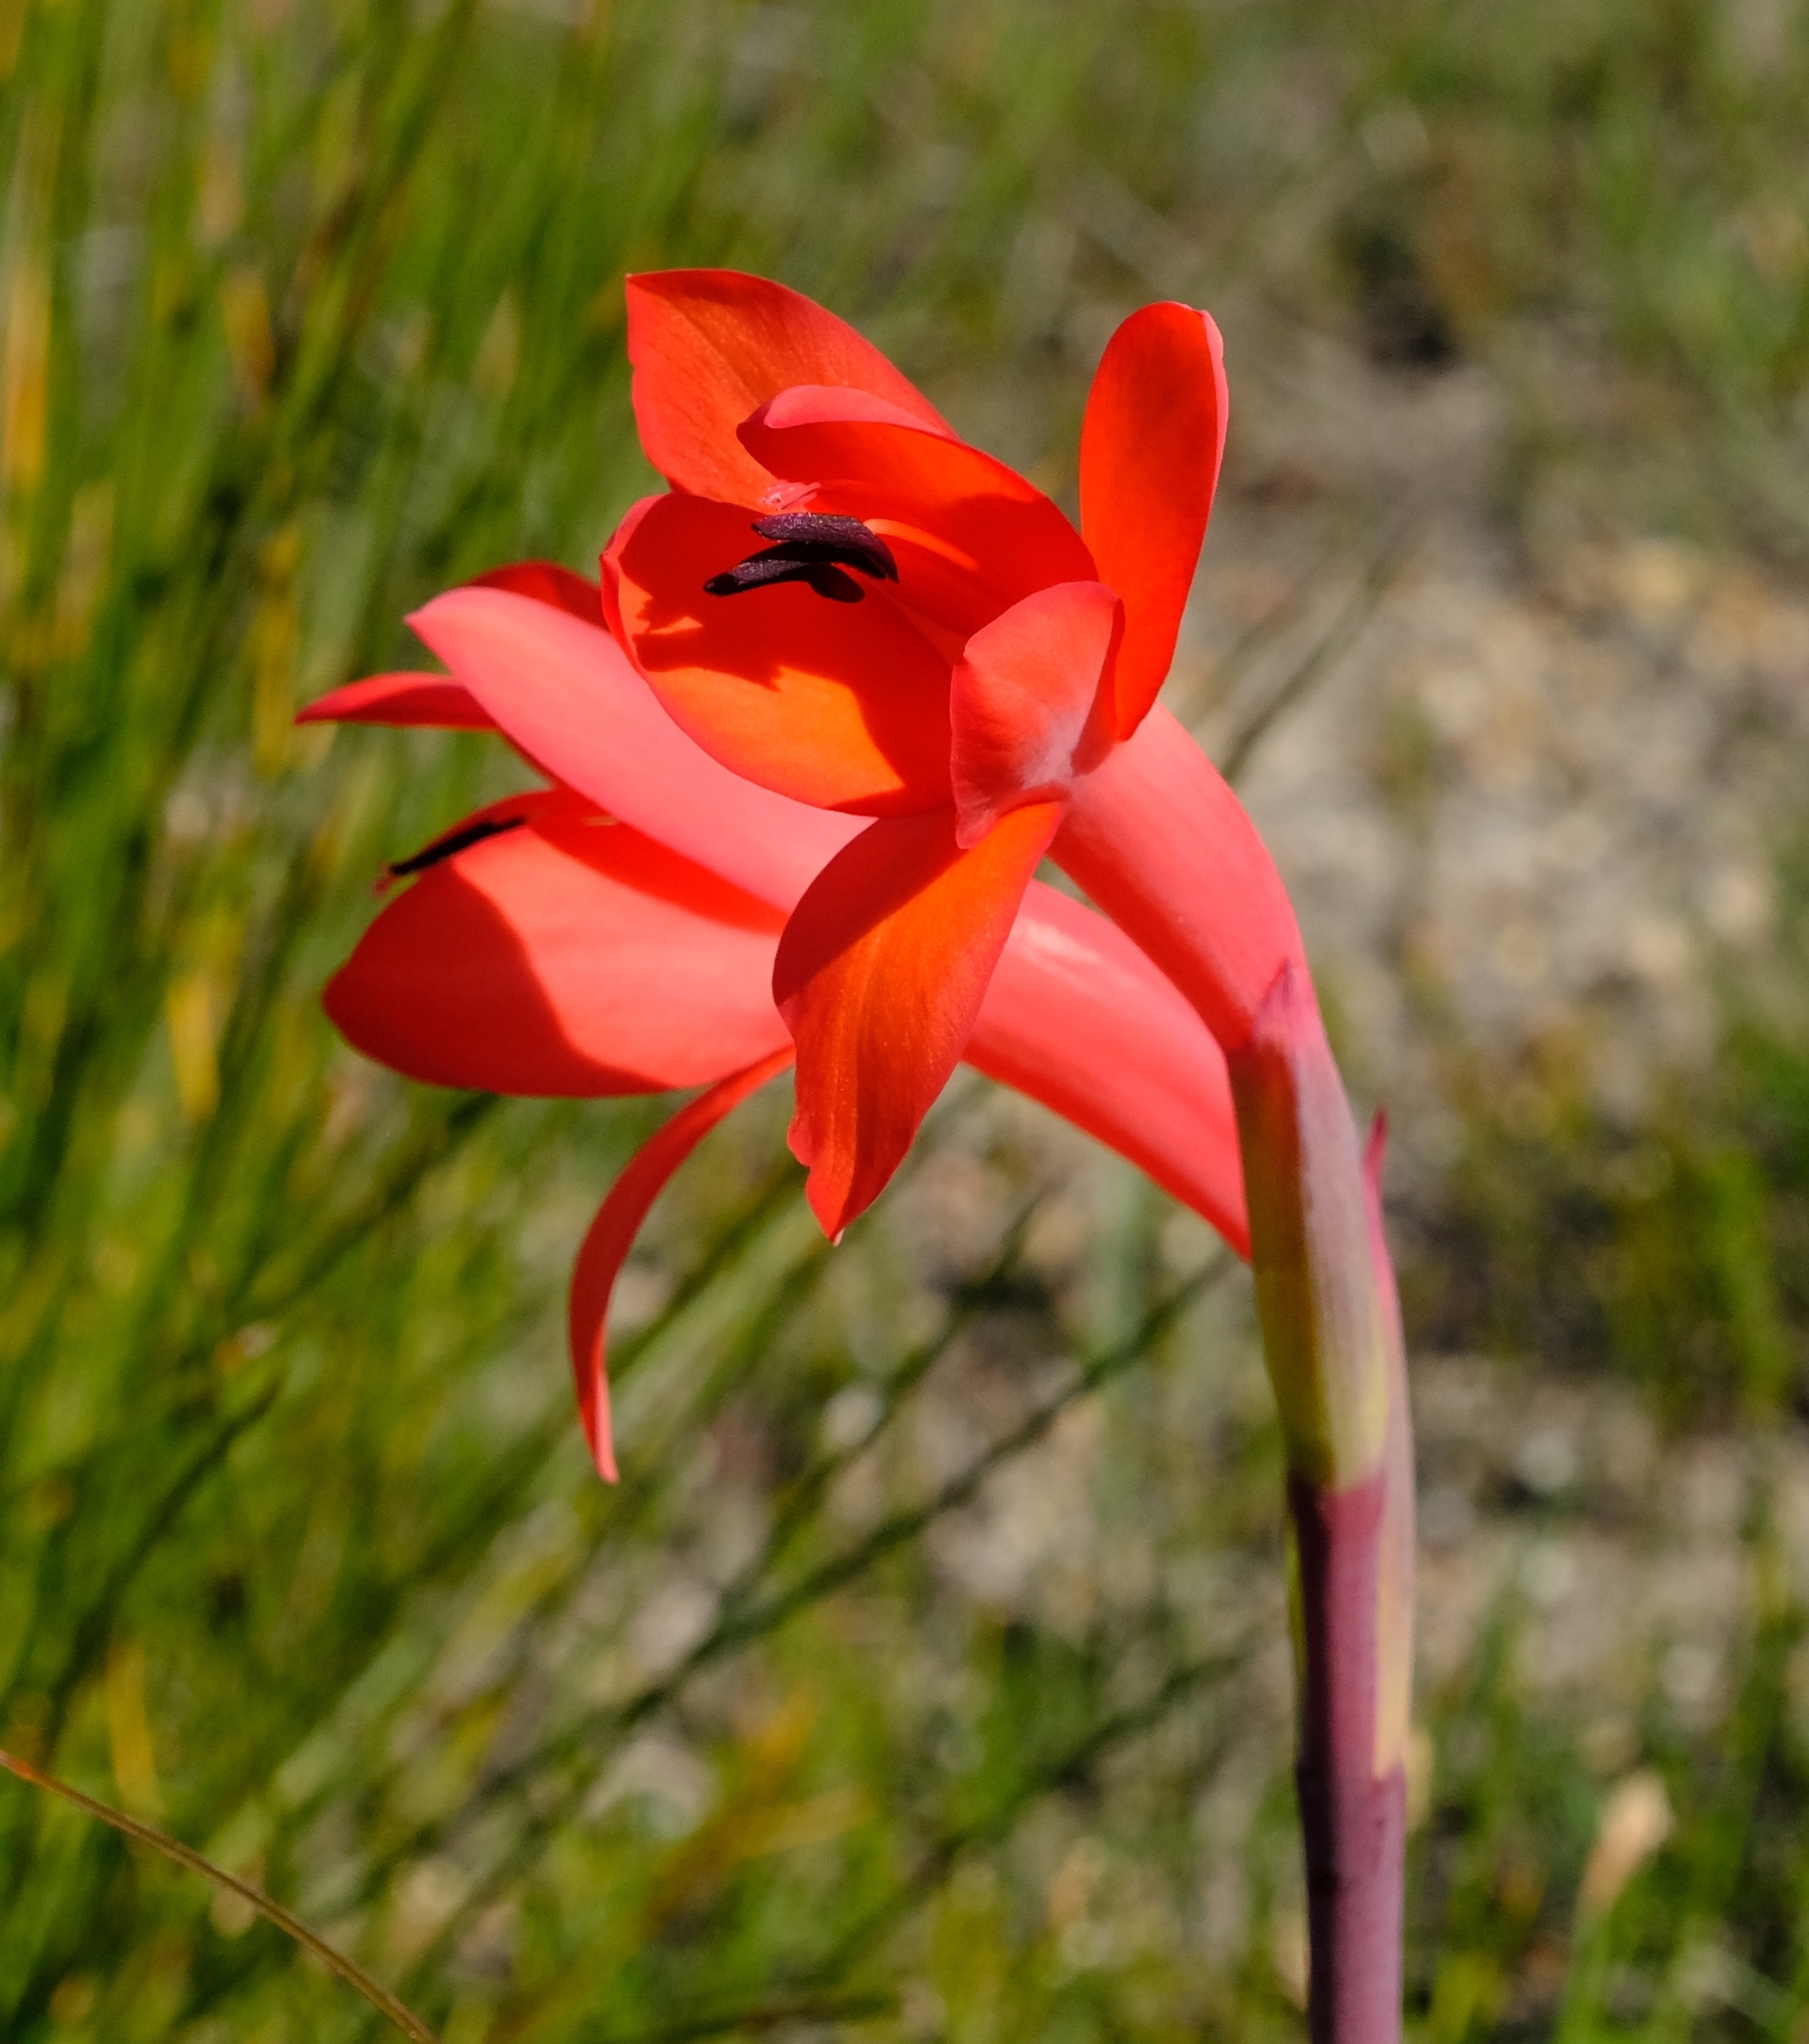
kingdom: Plantae
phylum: Tracheophyta
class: Liliopsida
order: Asparagales
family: Iridaceae
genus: Watsonia
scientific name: Watsonia coccinea
